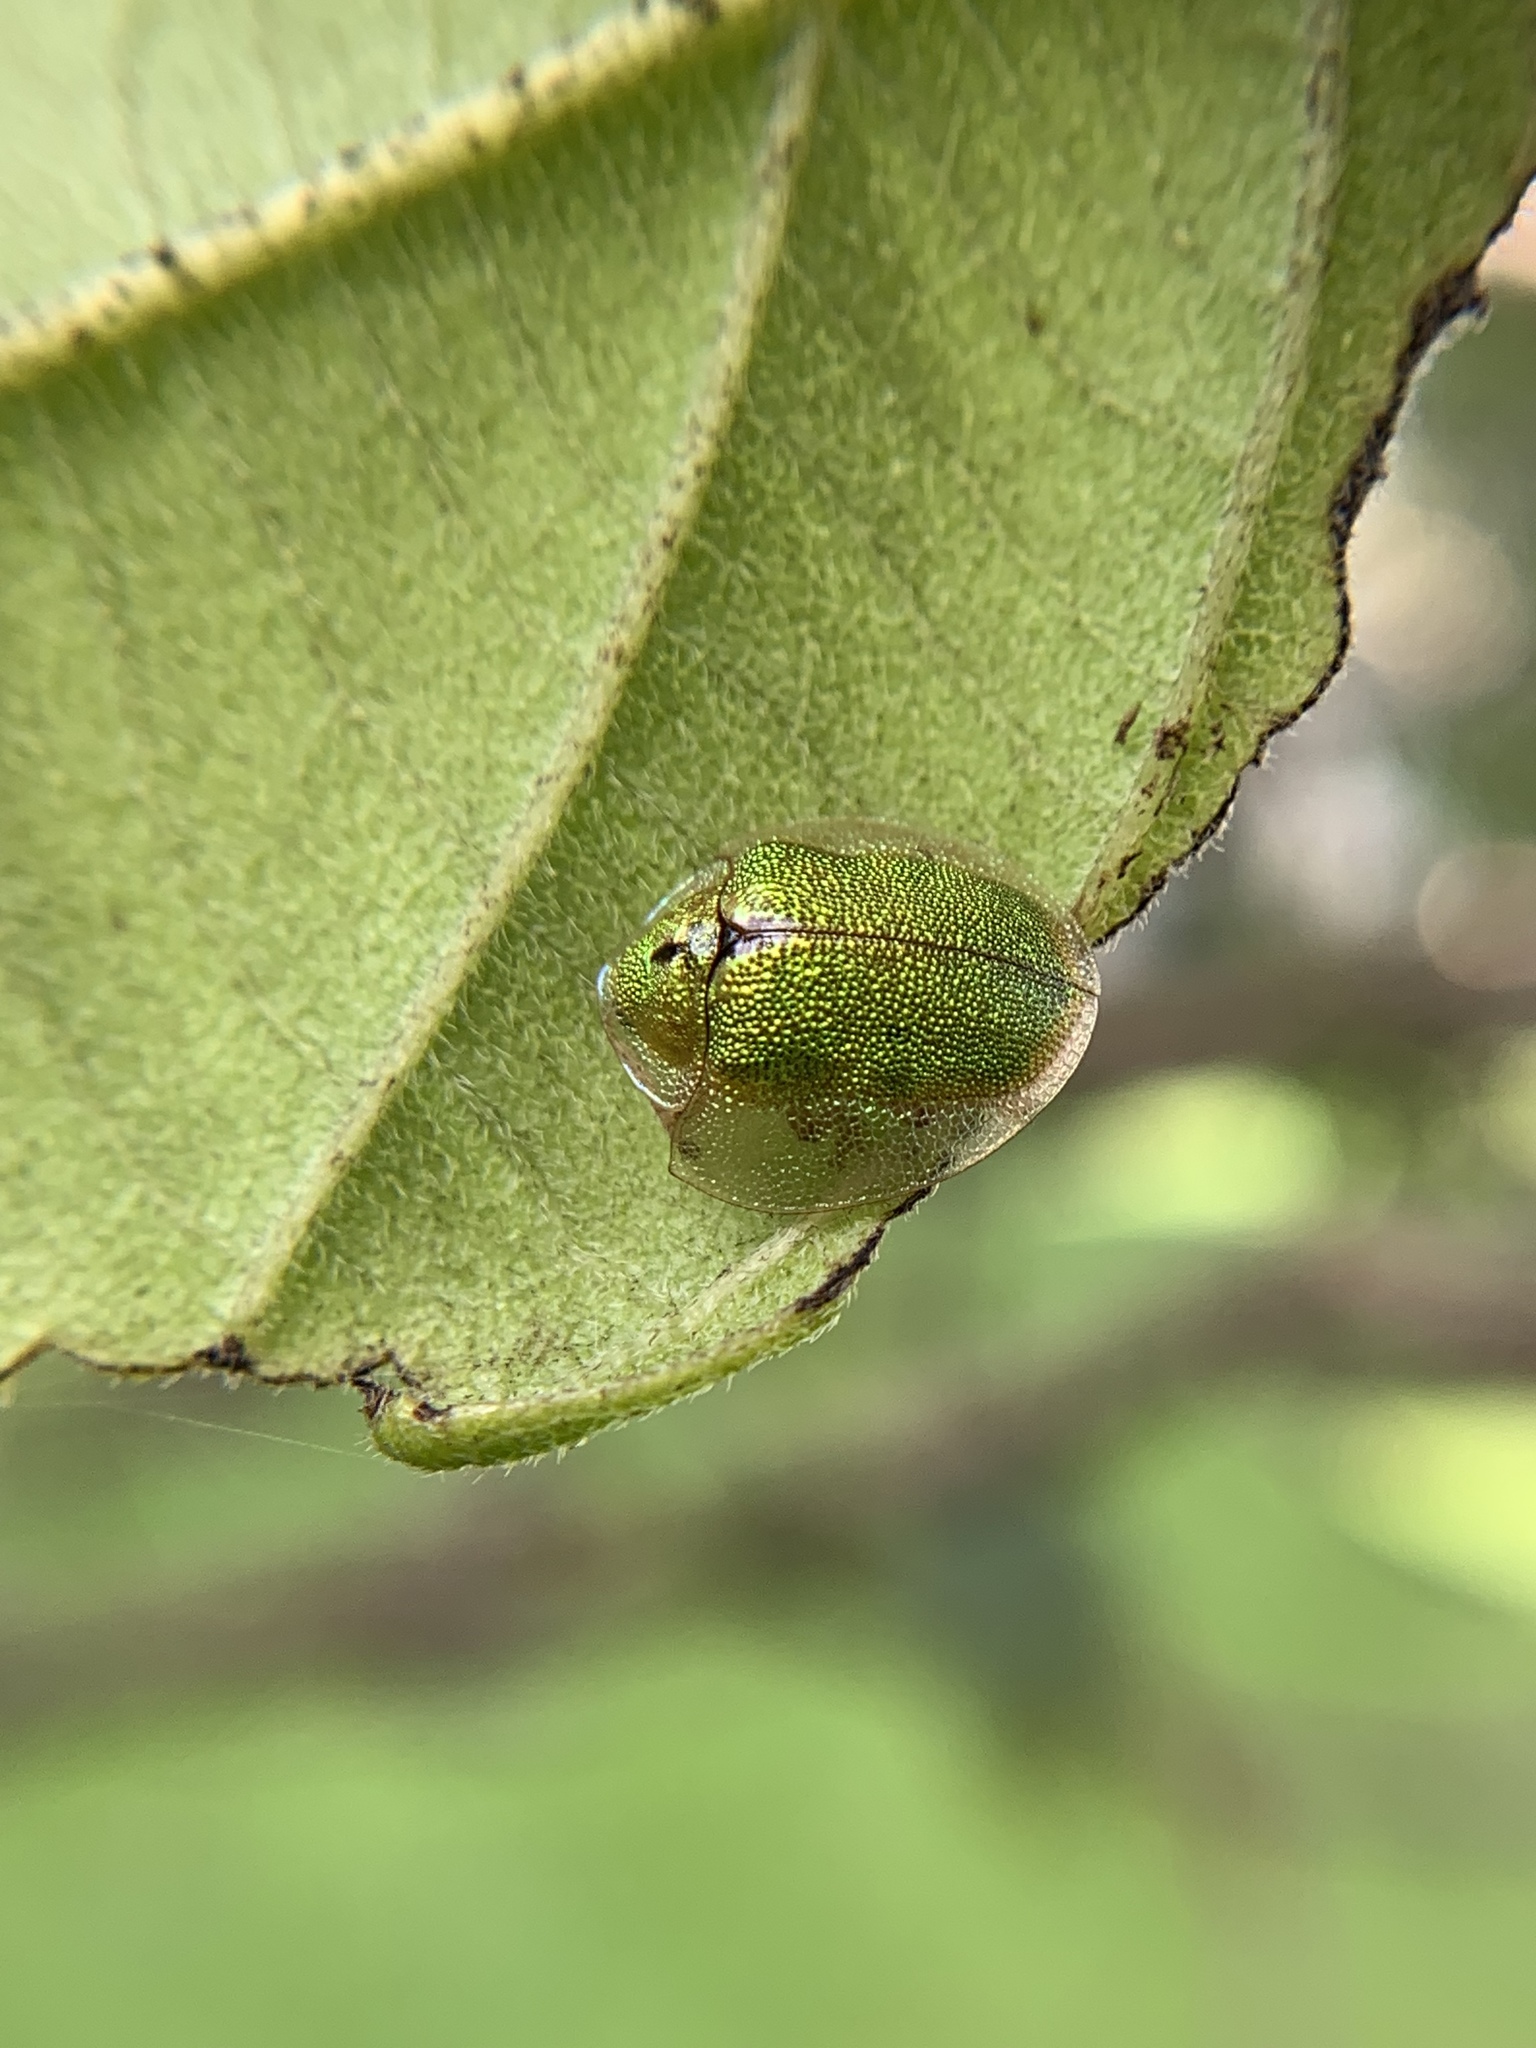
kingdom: Animalia
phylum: Arthropoda
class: Insecta
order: Coleoptera
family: Chrysomelidae
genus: Eurypepla
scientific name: Eurypepla calochroma
